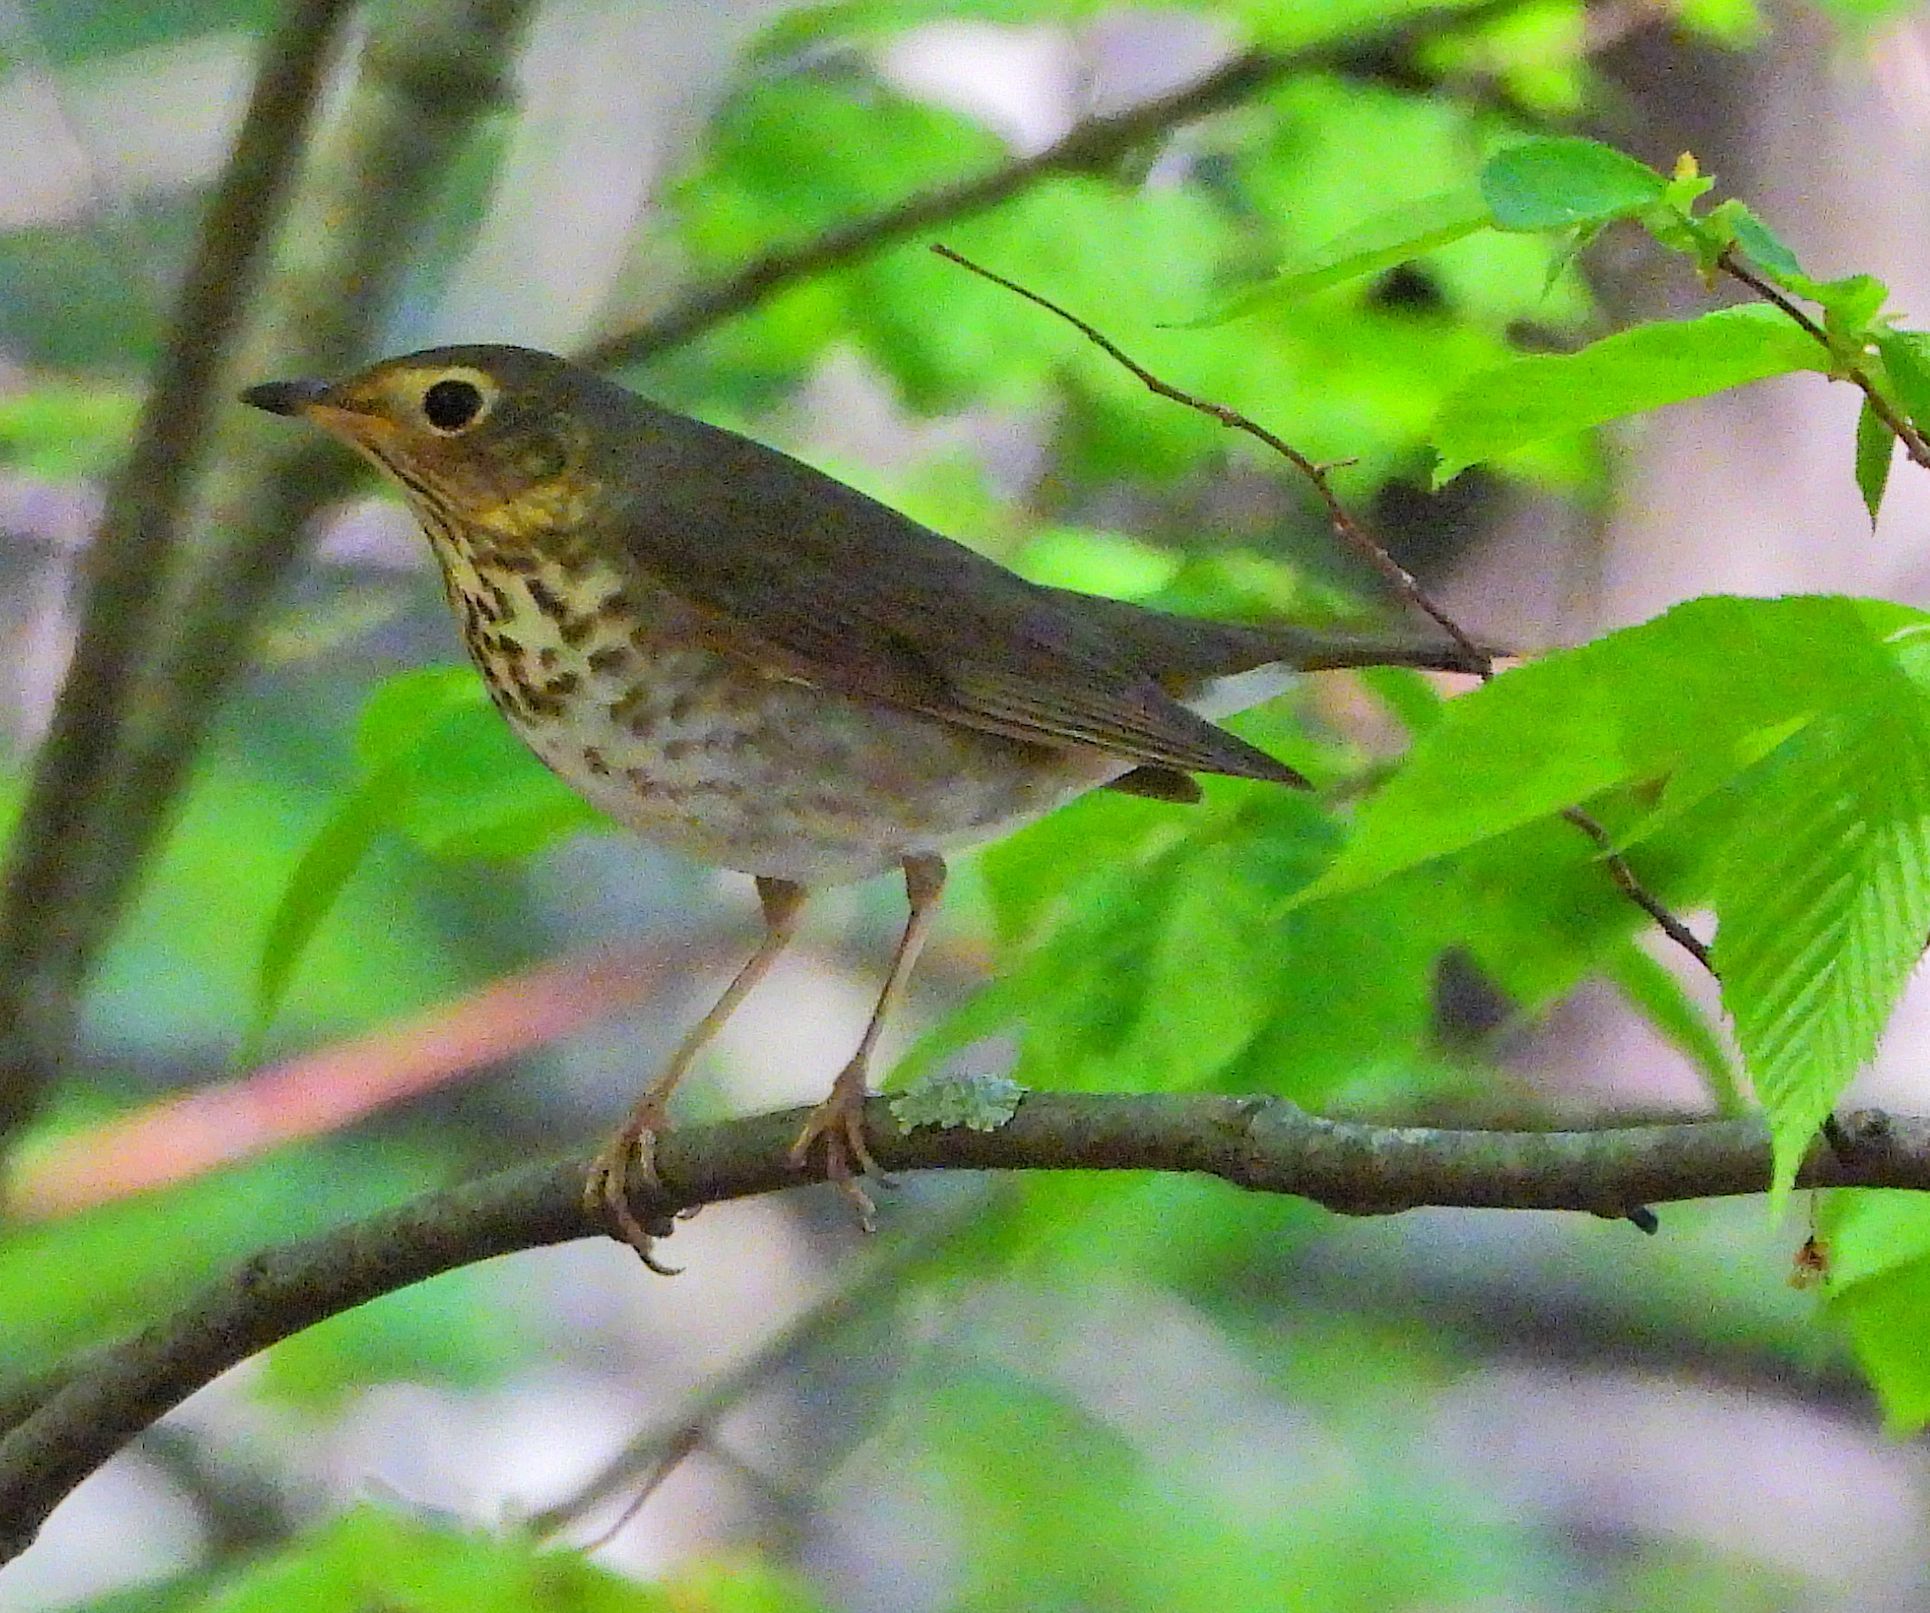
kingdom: Animalia
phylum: Chordata
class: Aves
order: Passeriformes
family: Turdidae
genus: Catharus
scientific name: Catharus ustulatus
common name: Swainson's thrush
